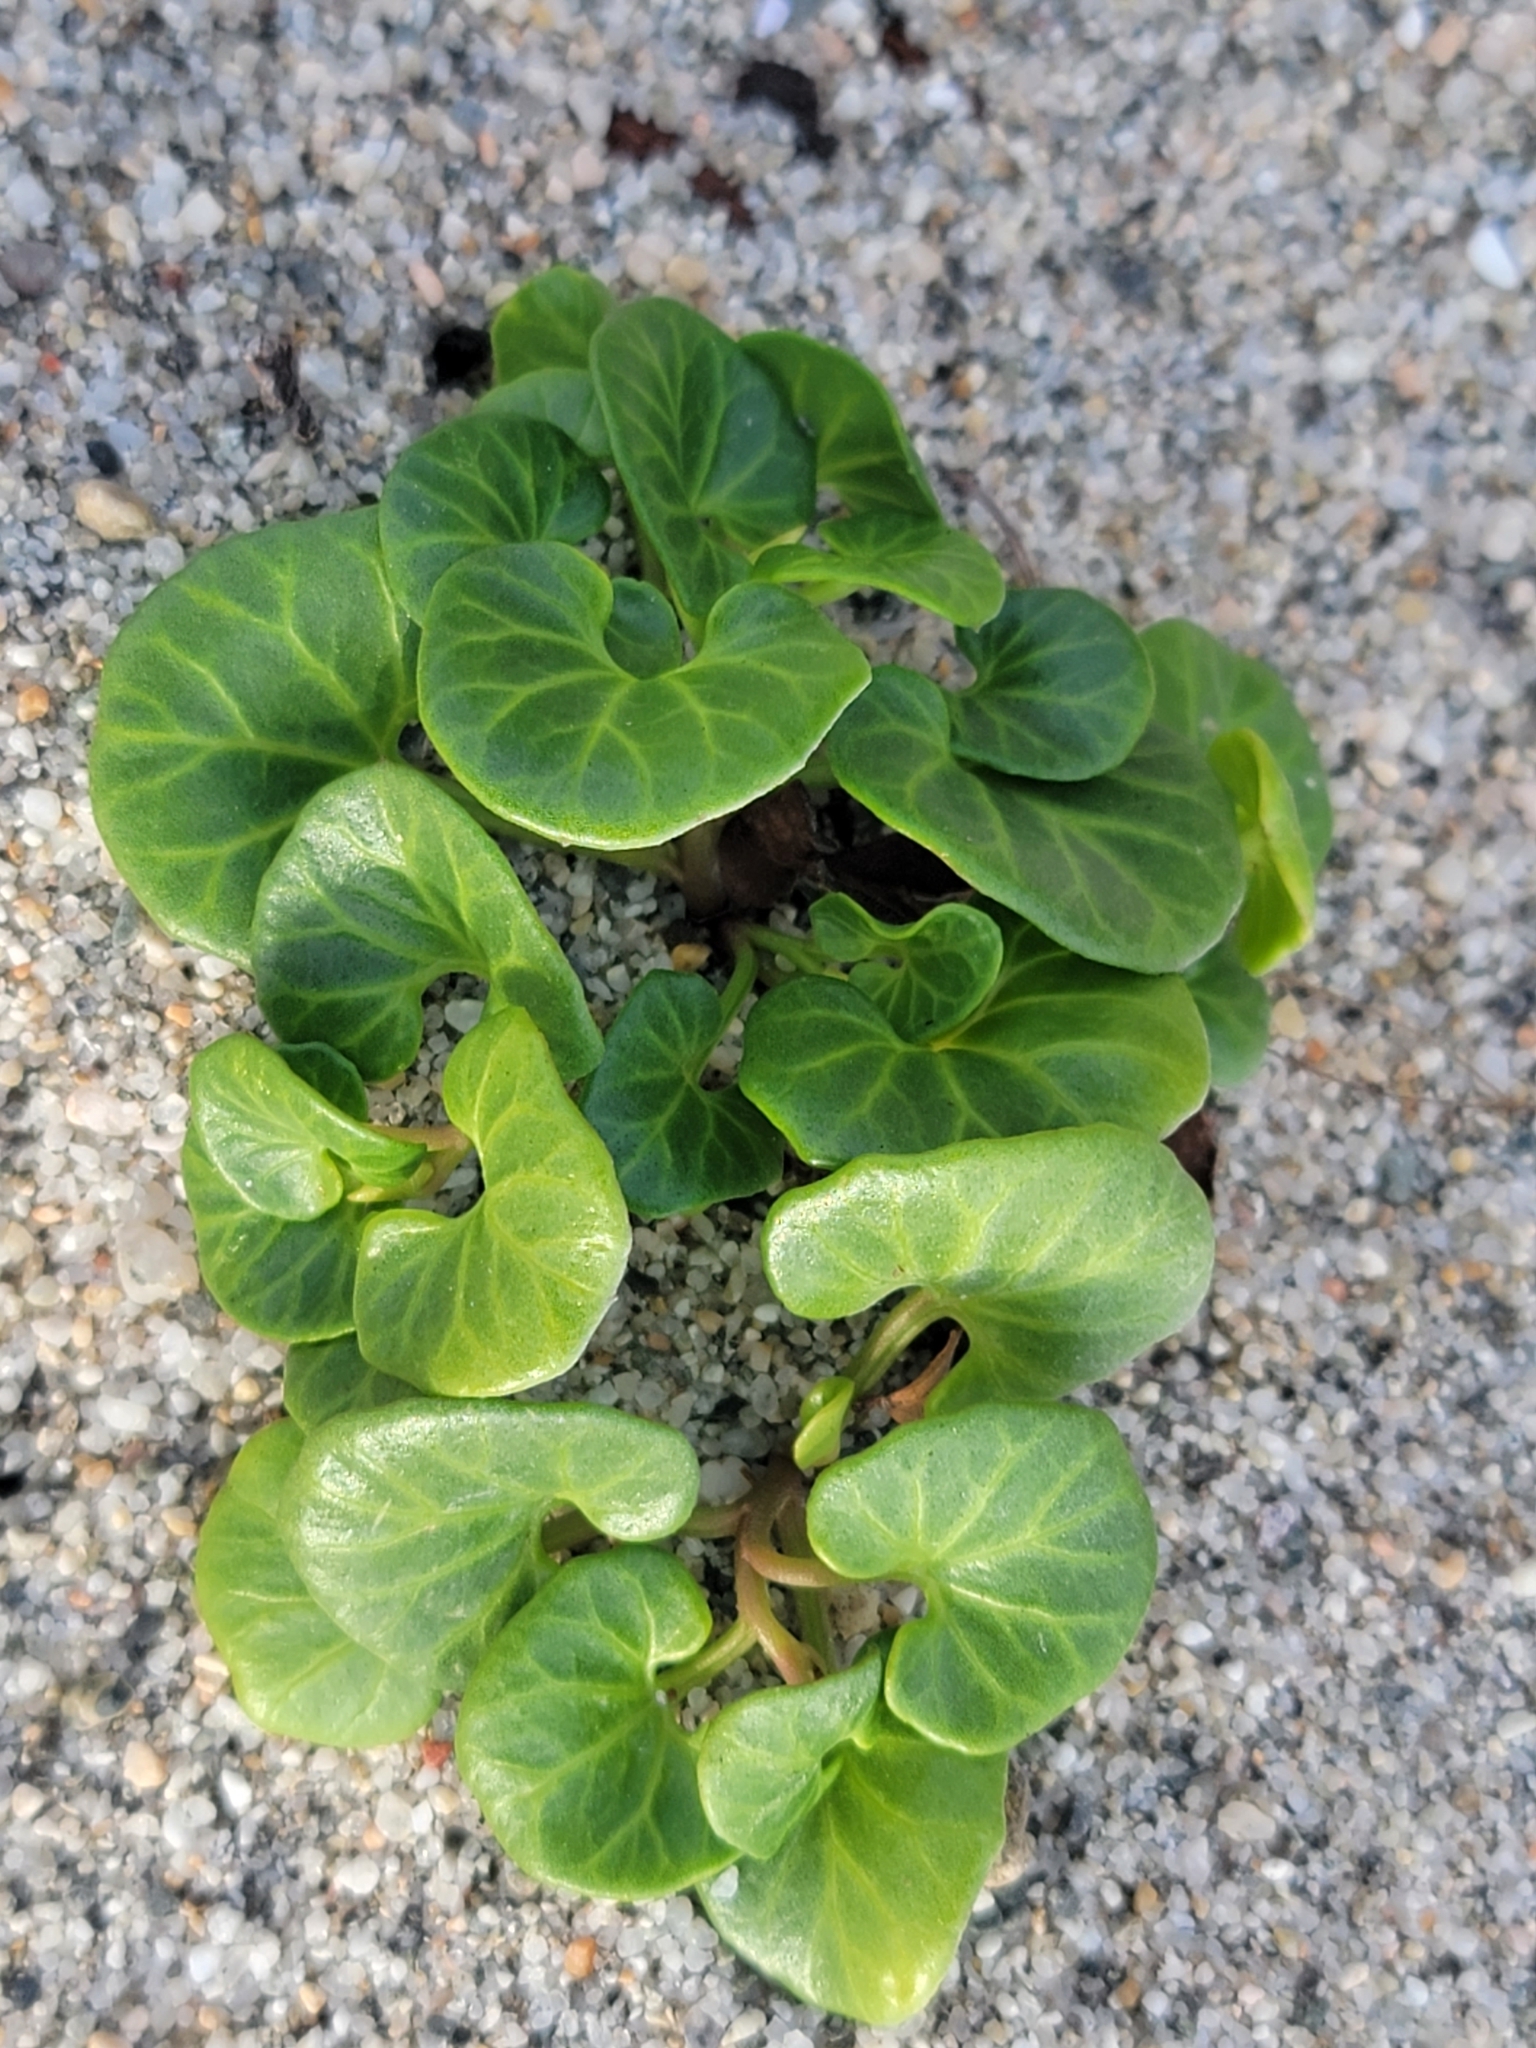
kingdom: Plantae
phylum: Tracheophyta
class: Magnoliopsida
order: Solanales
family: Convolvulaceae
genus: Calystegia
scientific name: Calystegia soldanella
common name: Sea bindweed
